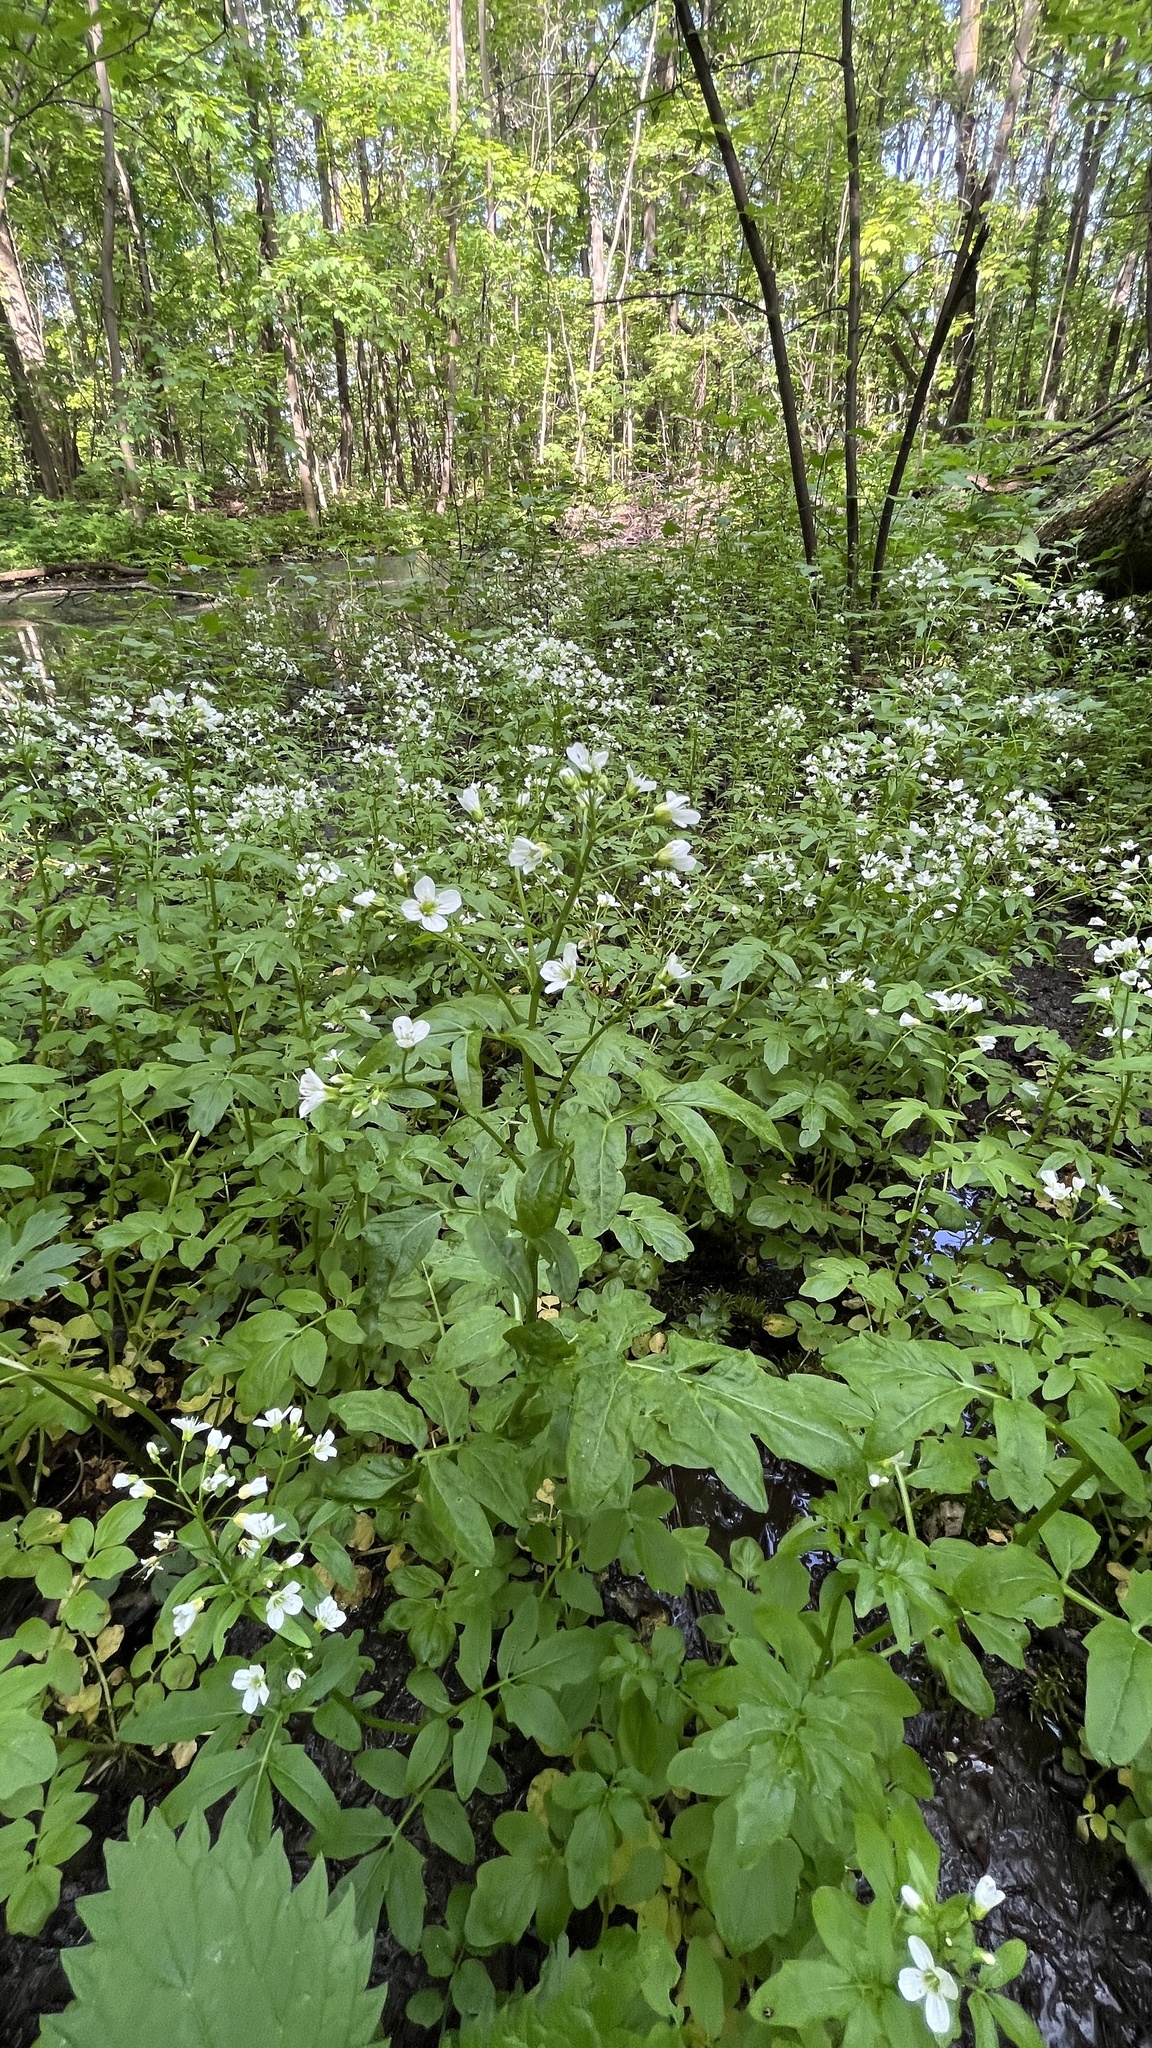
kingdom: Plantae
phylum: Tracheophyta
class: Magnoliopsida
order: Brassicales
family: Brassicaceae
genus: Cardamine
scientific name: Cardamine amara
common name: Large bitter-cress
